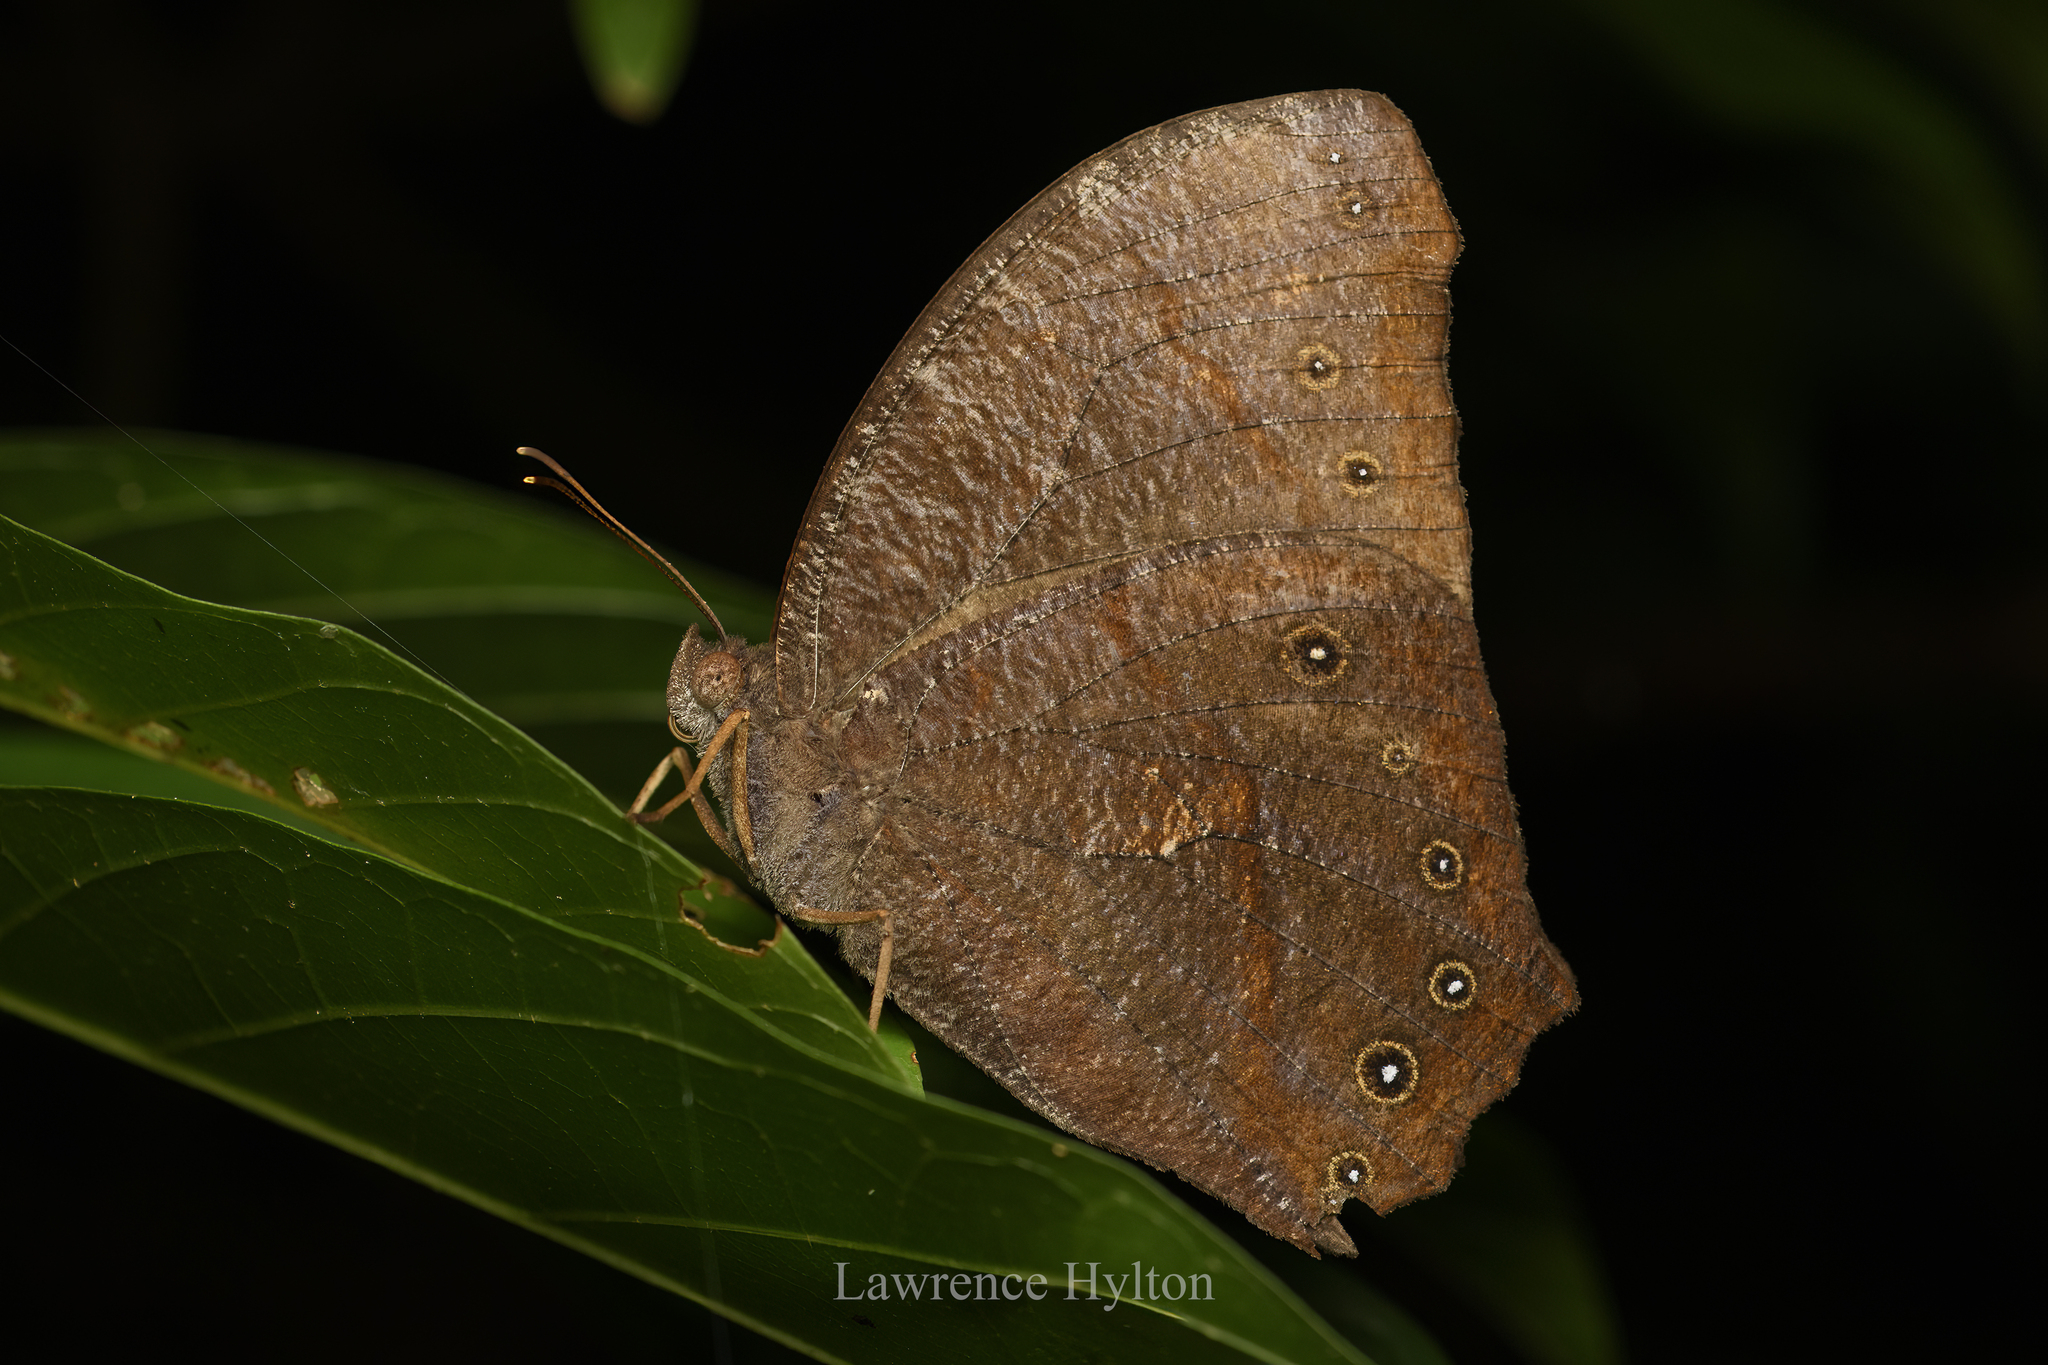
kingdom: Animalia
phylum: Arthropoda
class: Insecta
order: Lepidoptera
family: Nymphalidae
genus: Melanitis
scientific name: Melanitis phedima
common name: Dark evening brown
